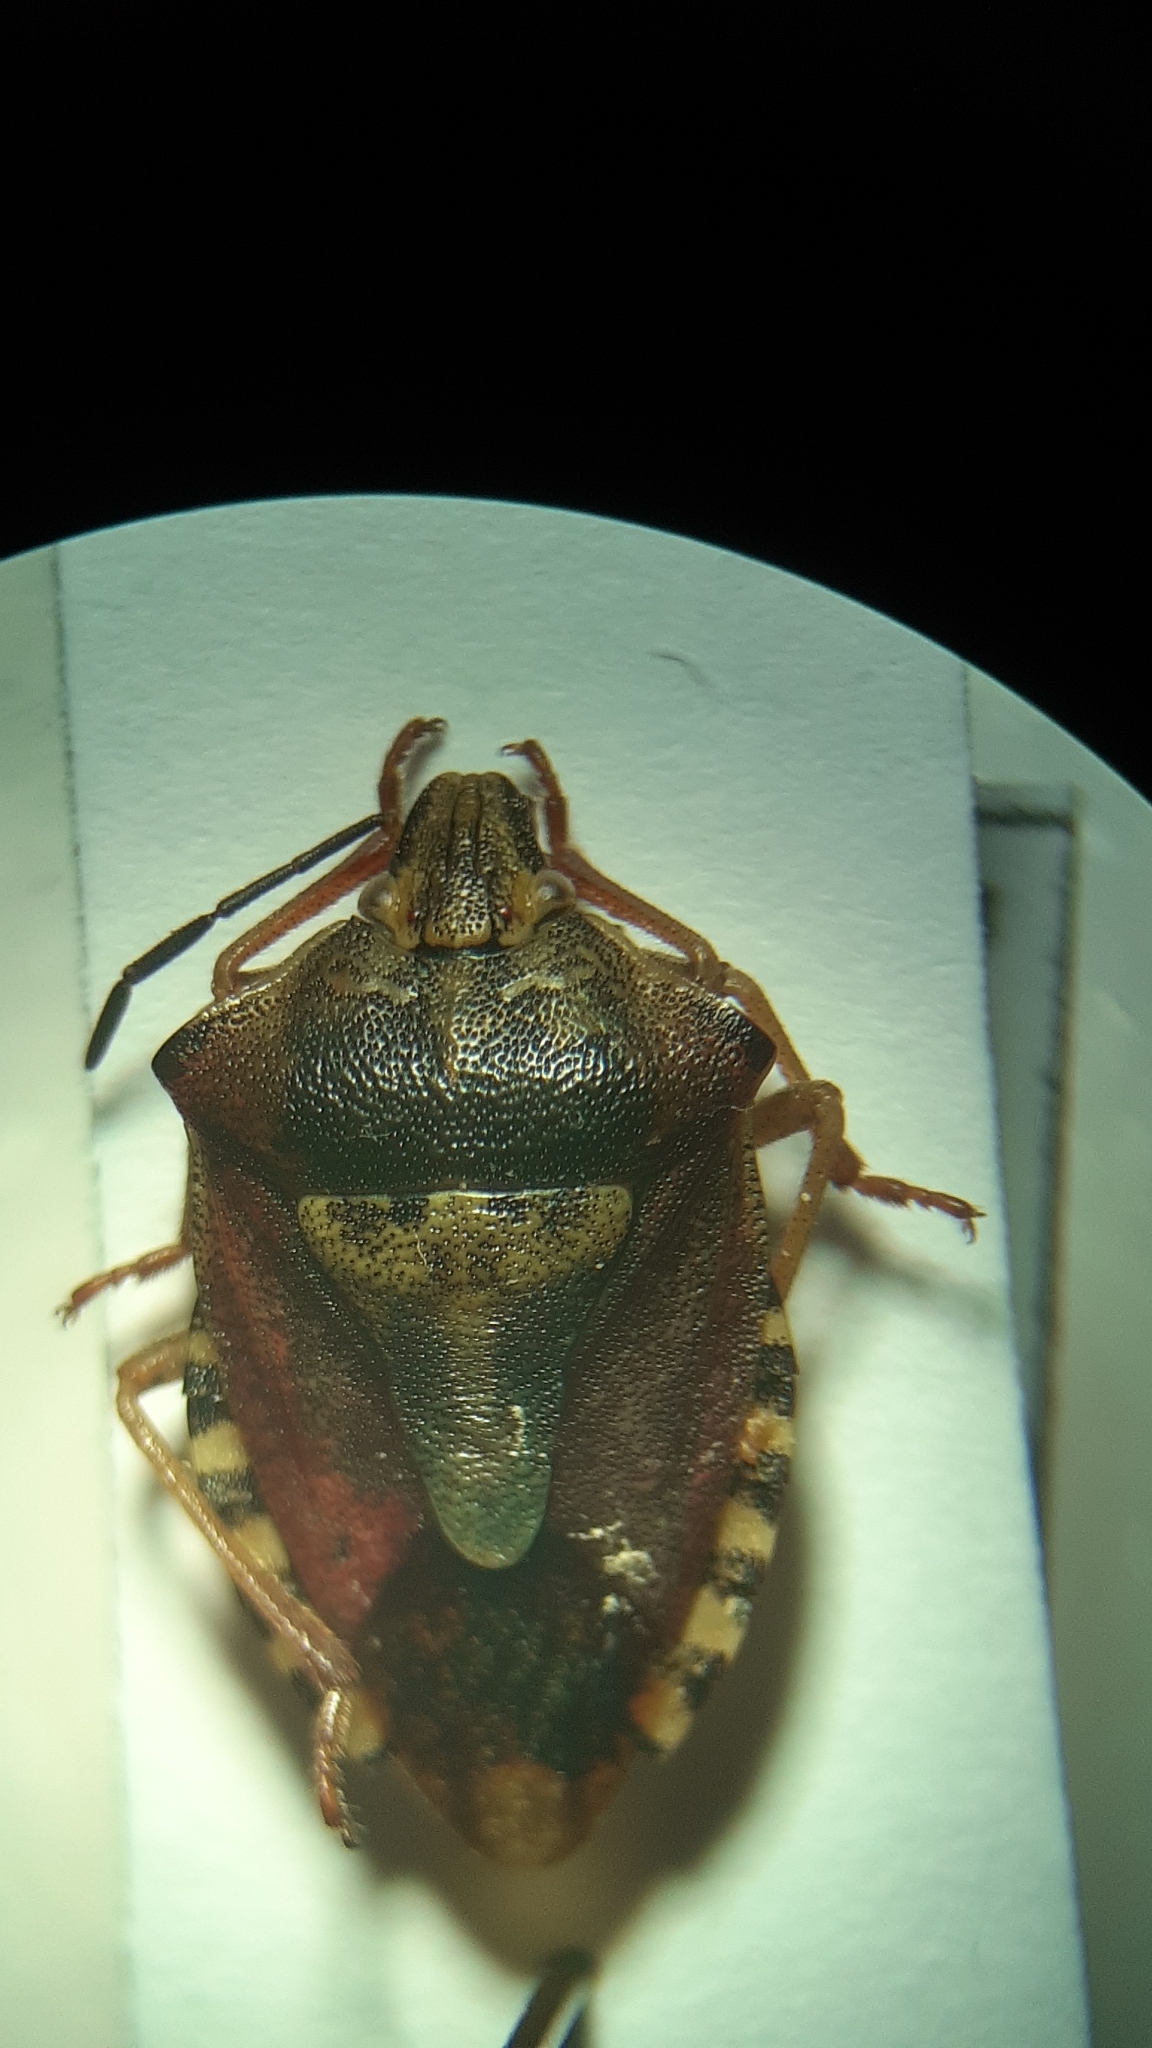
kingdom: Animalia
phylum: Arthropoda
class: Insecta
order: Hemiptera
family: Pentatomidae
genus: Carpocoris
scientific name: Carpocoris purpureipennis
